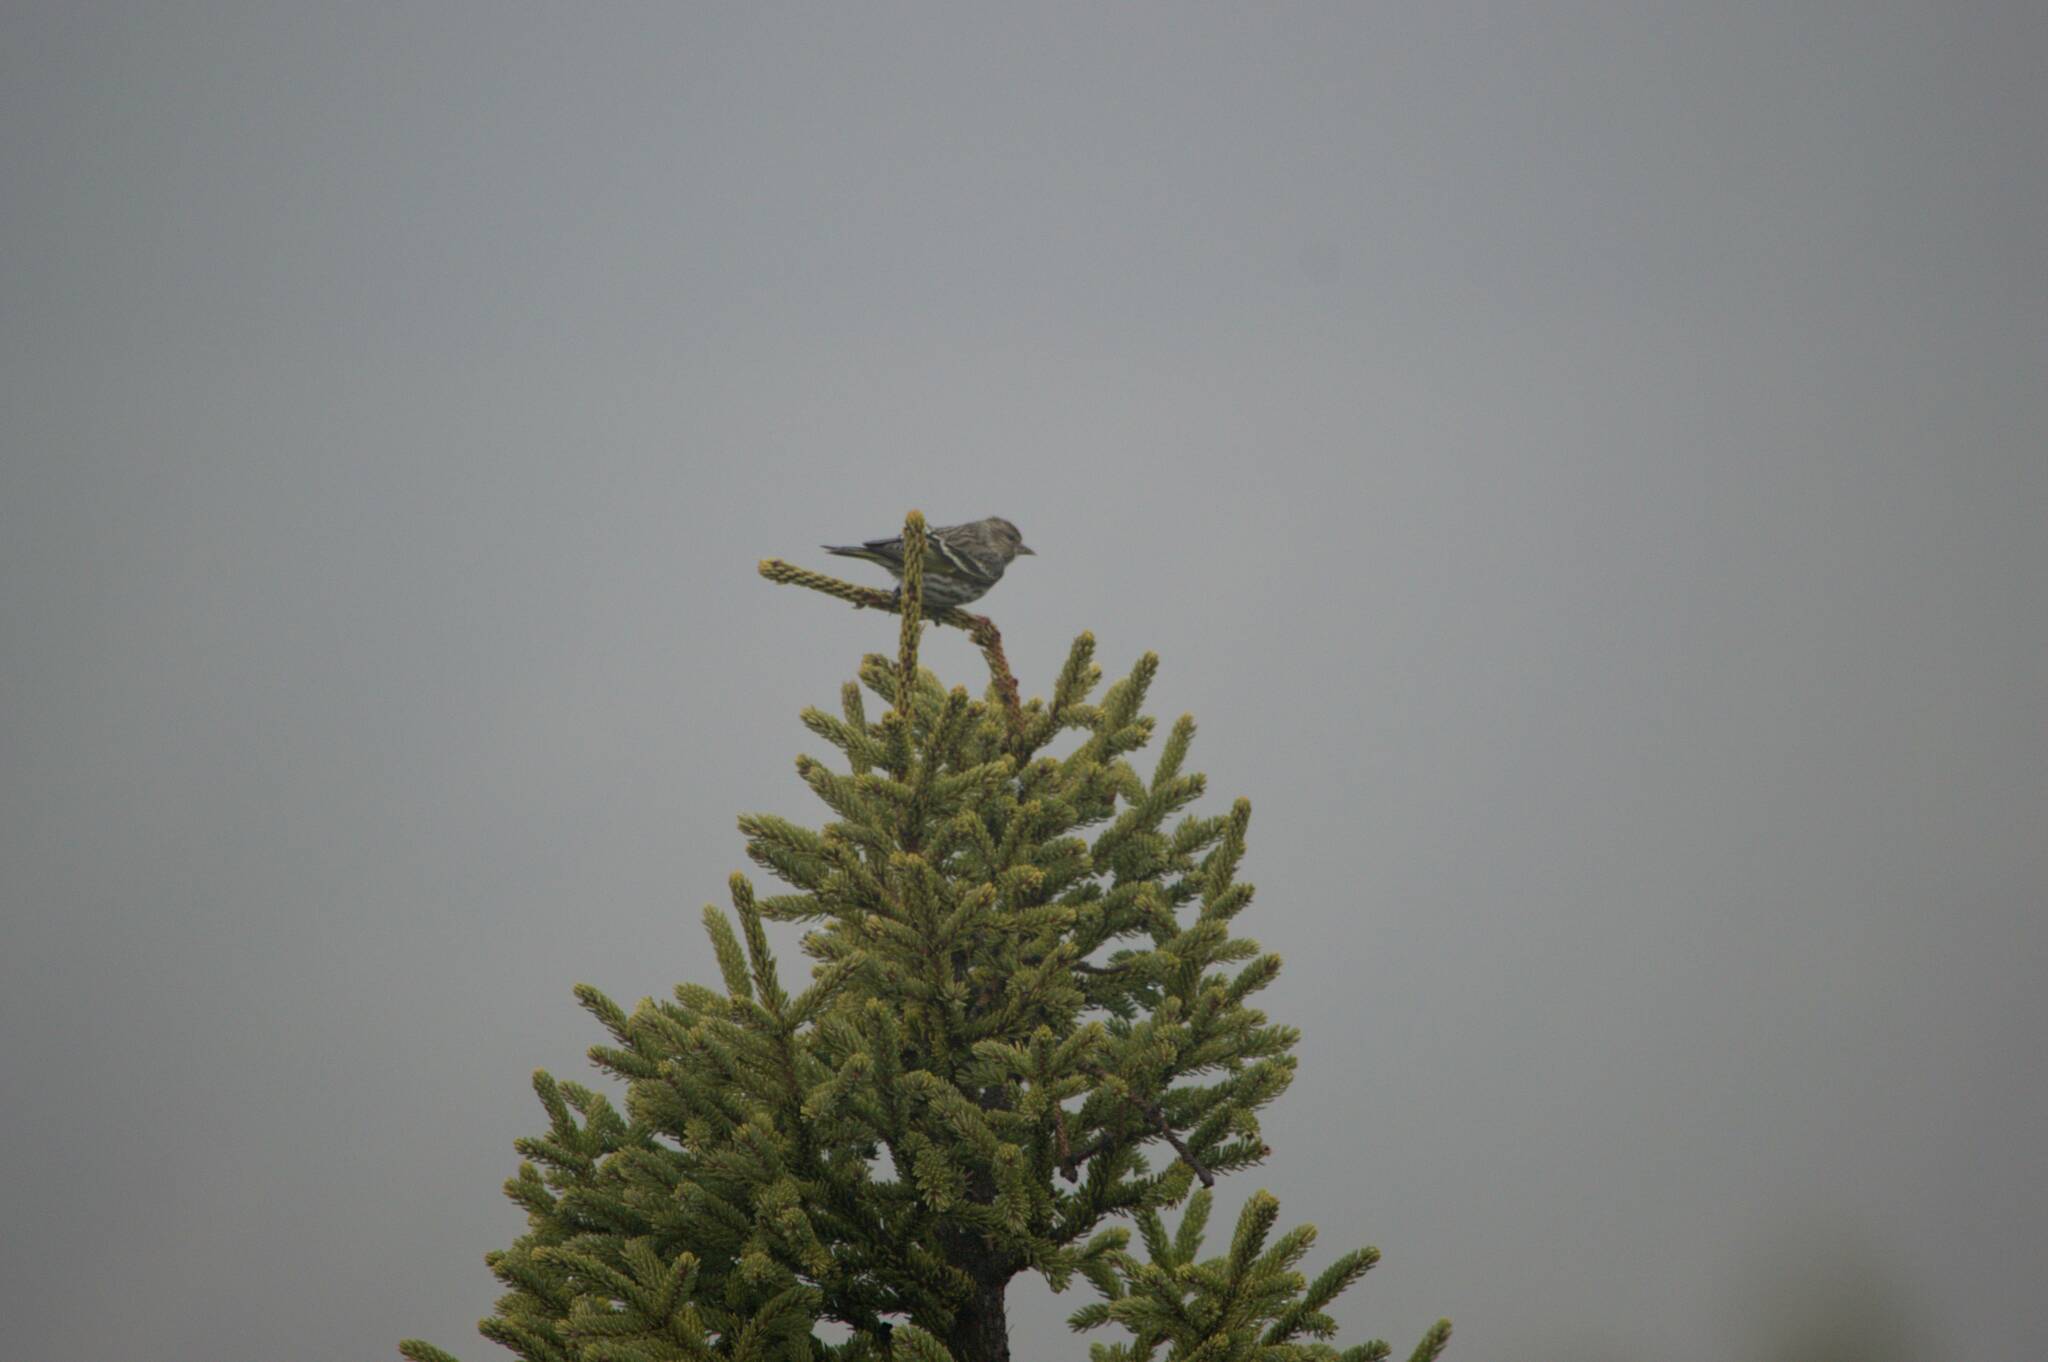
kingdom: Animalia
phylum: Chordata
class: Aves
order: Passeriformes
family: Fringillidae
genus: Spinus
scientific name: Spinus pinus
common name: Pine siskin
